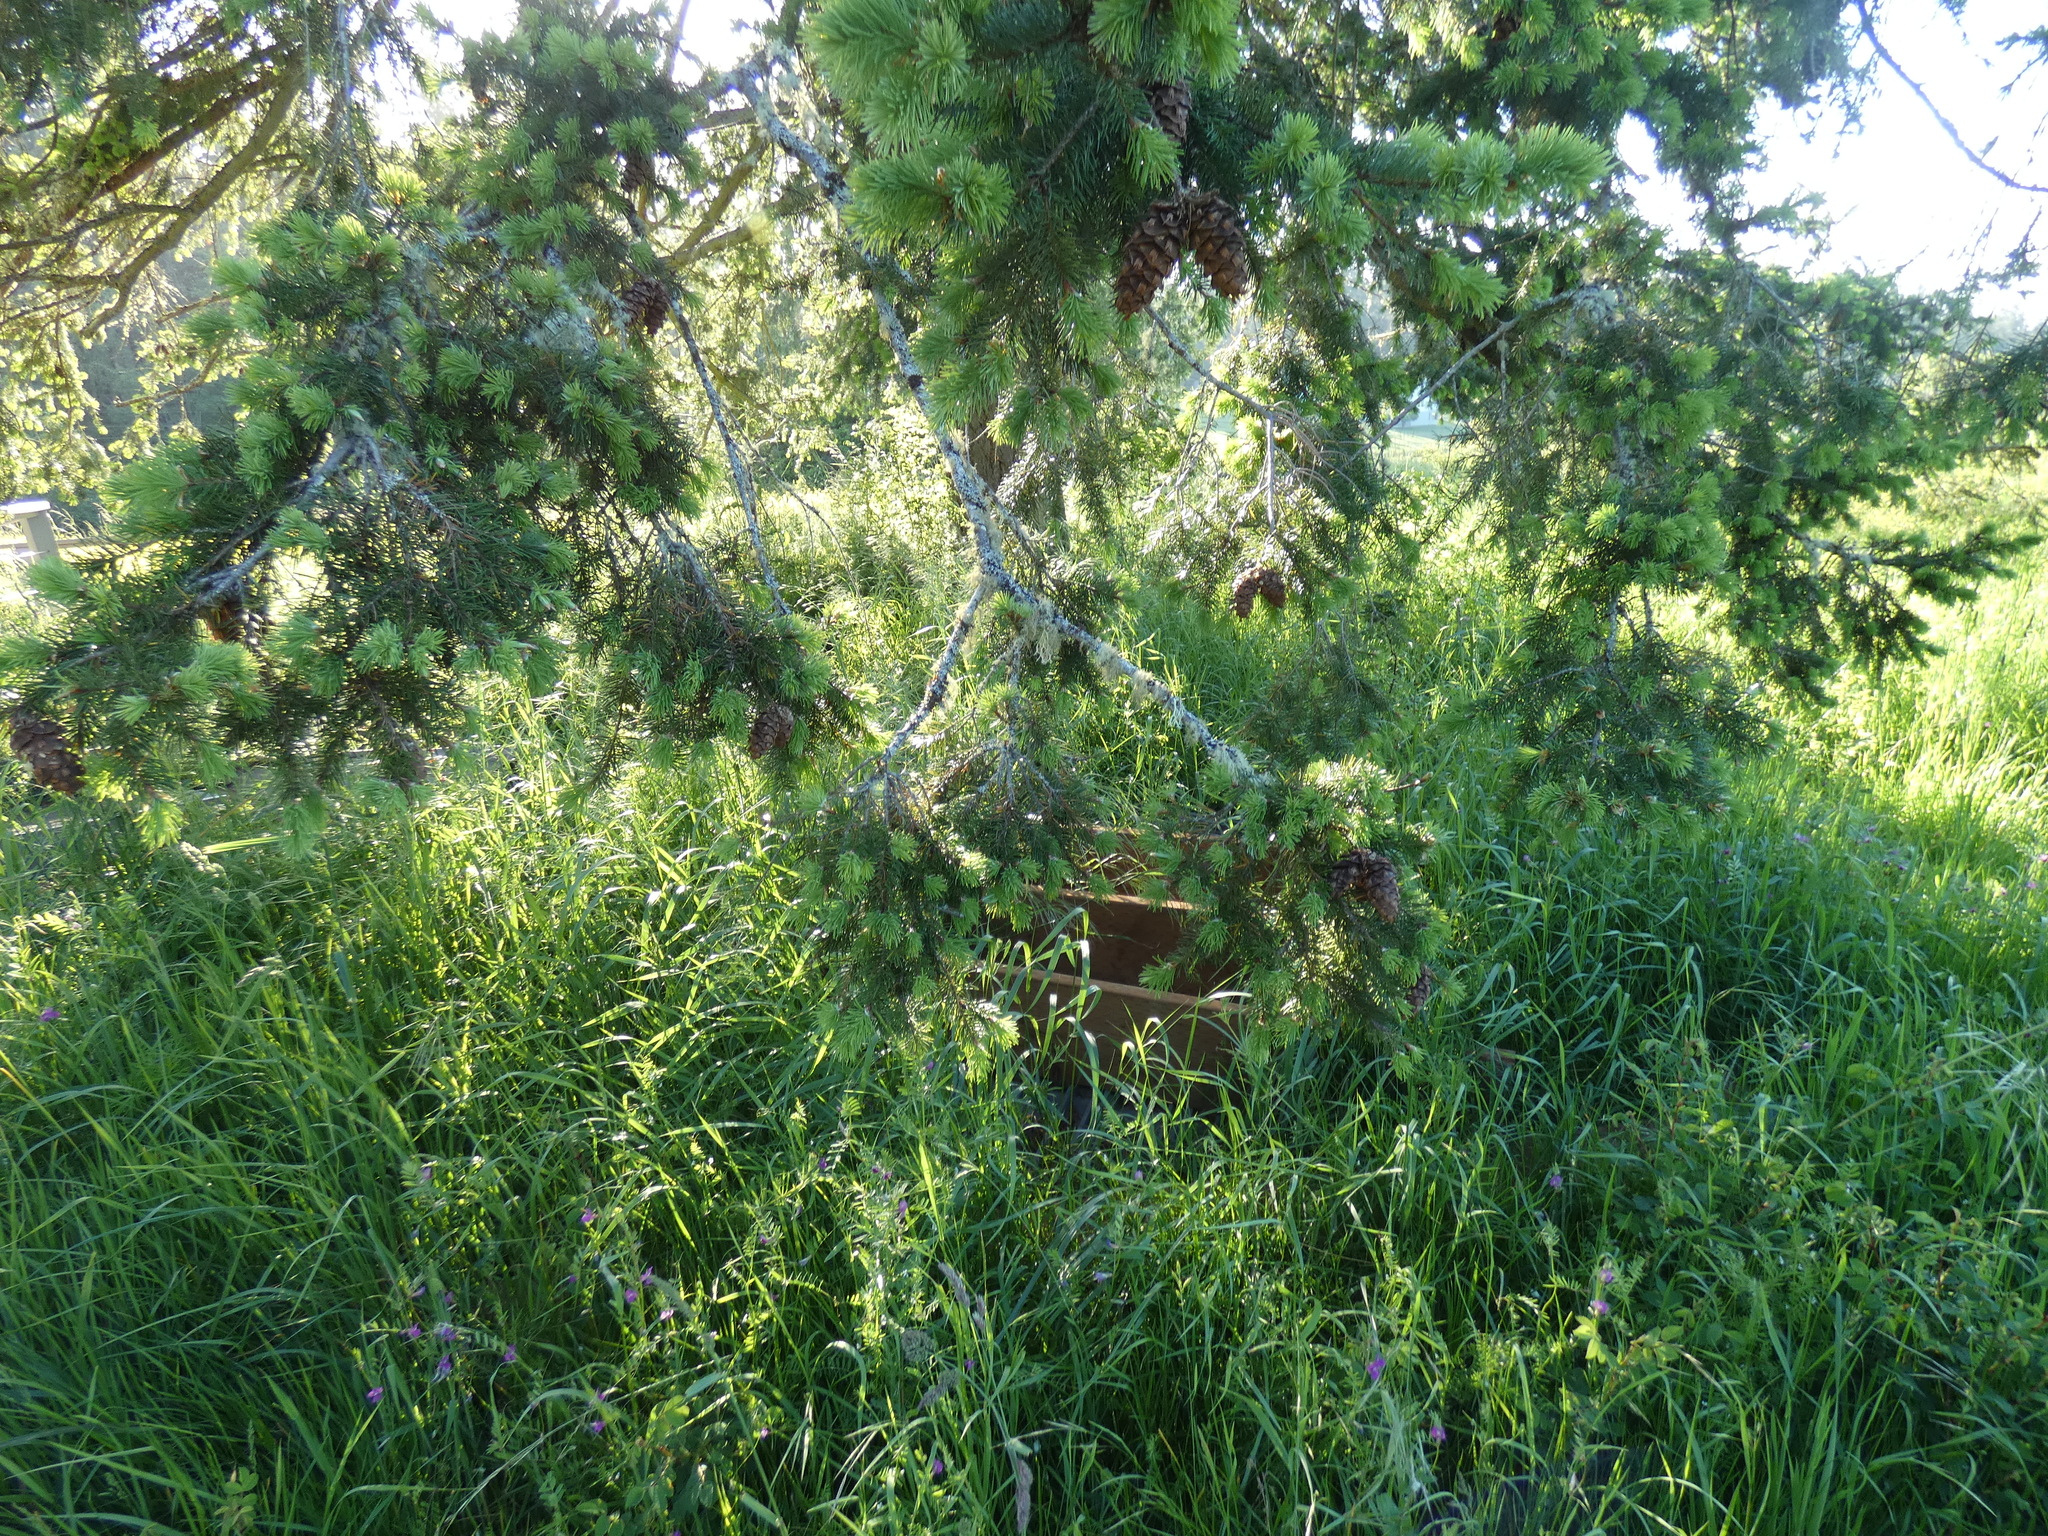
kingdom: Plantae
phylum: Tracheophyta
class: Pinopsida
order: Pinales
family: Pinaceae
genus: Picea
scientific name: Picea sitchensis
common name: Sitka spruce
